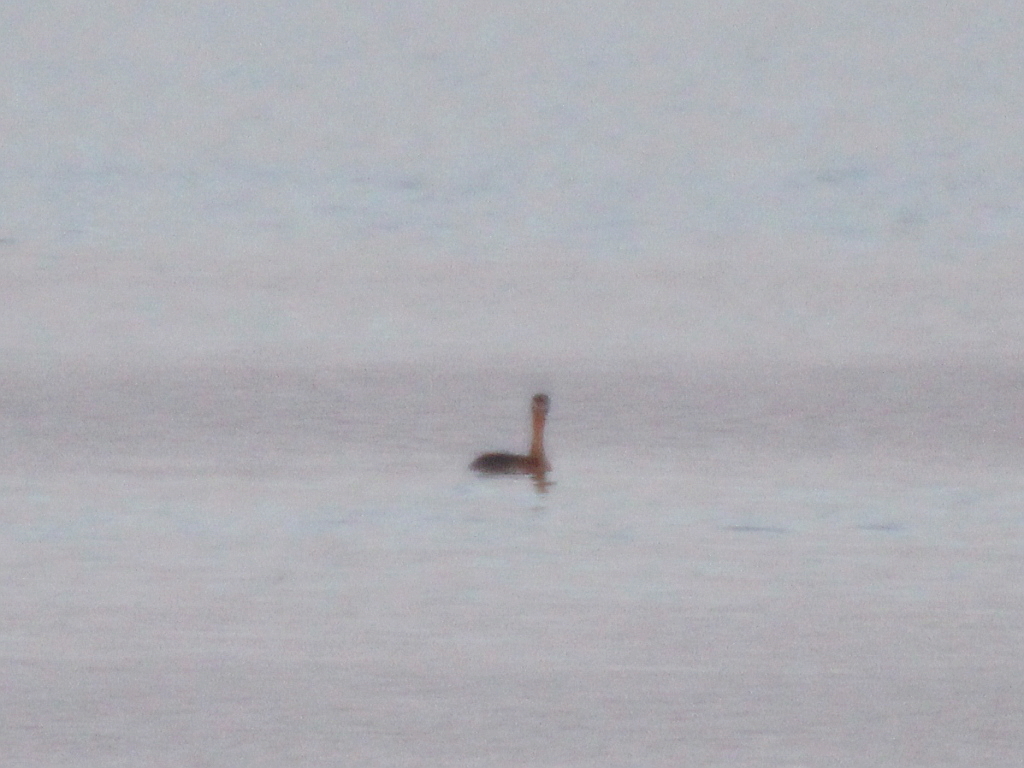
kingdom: Animalia
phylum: Chordata
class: Aves
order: Podicipediformes
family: Podicipedidae
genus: Podiceps
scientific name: Podiceps grisegena
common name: Red-necked grebe
